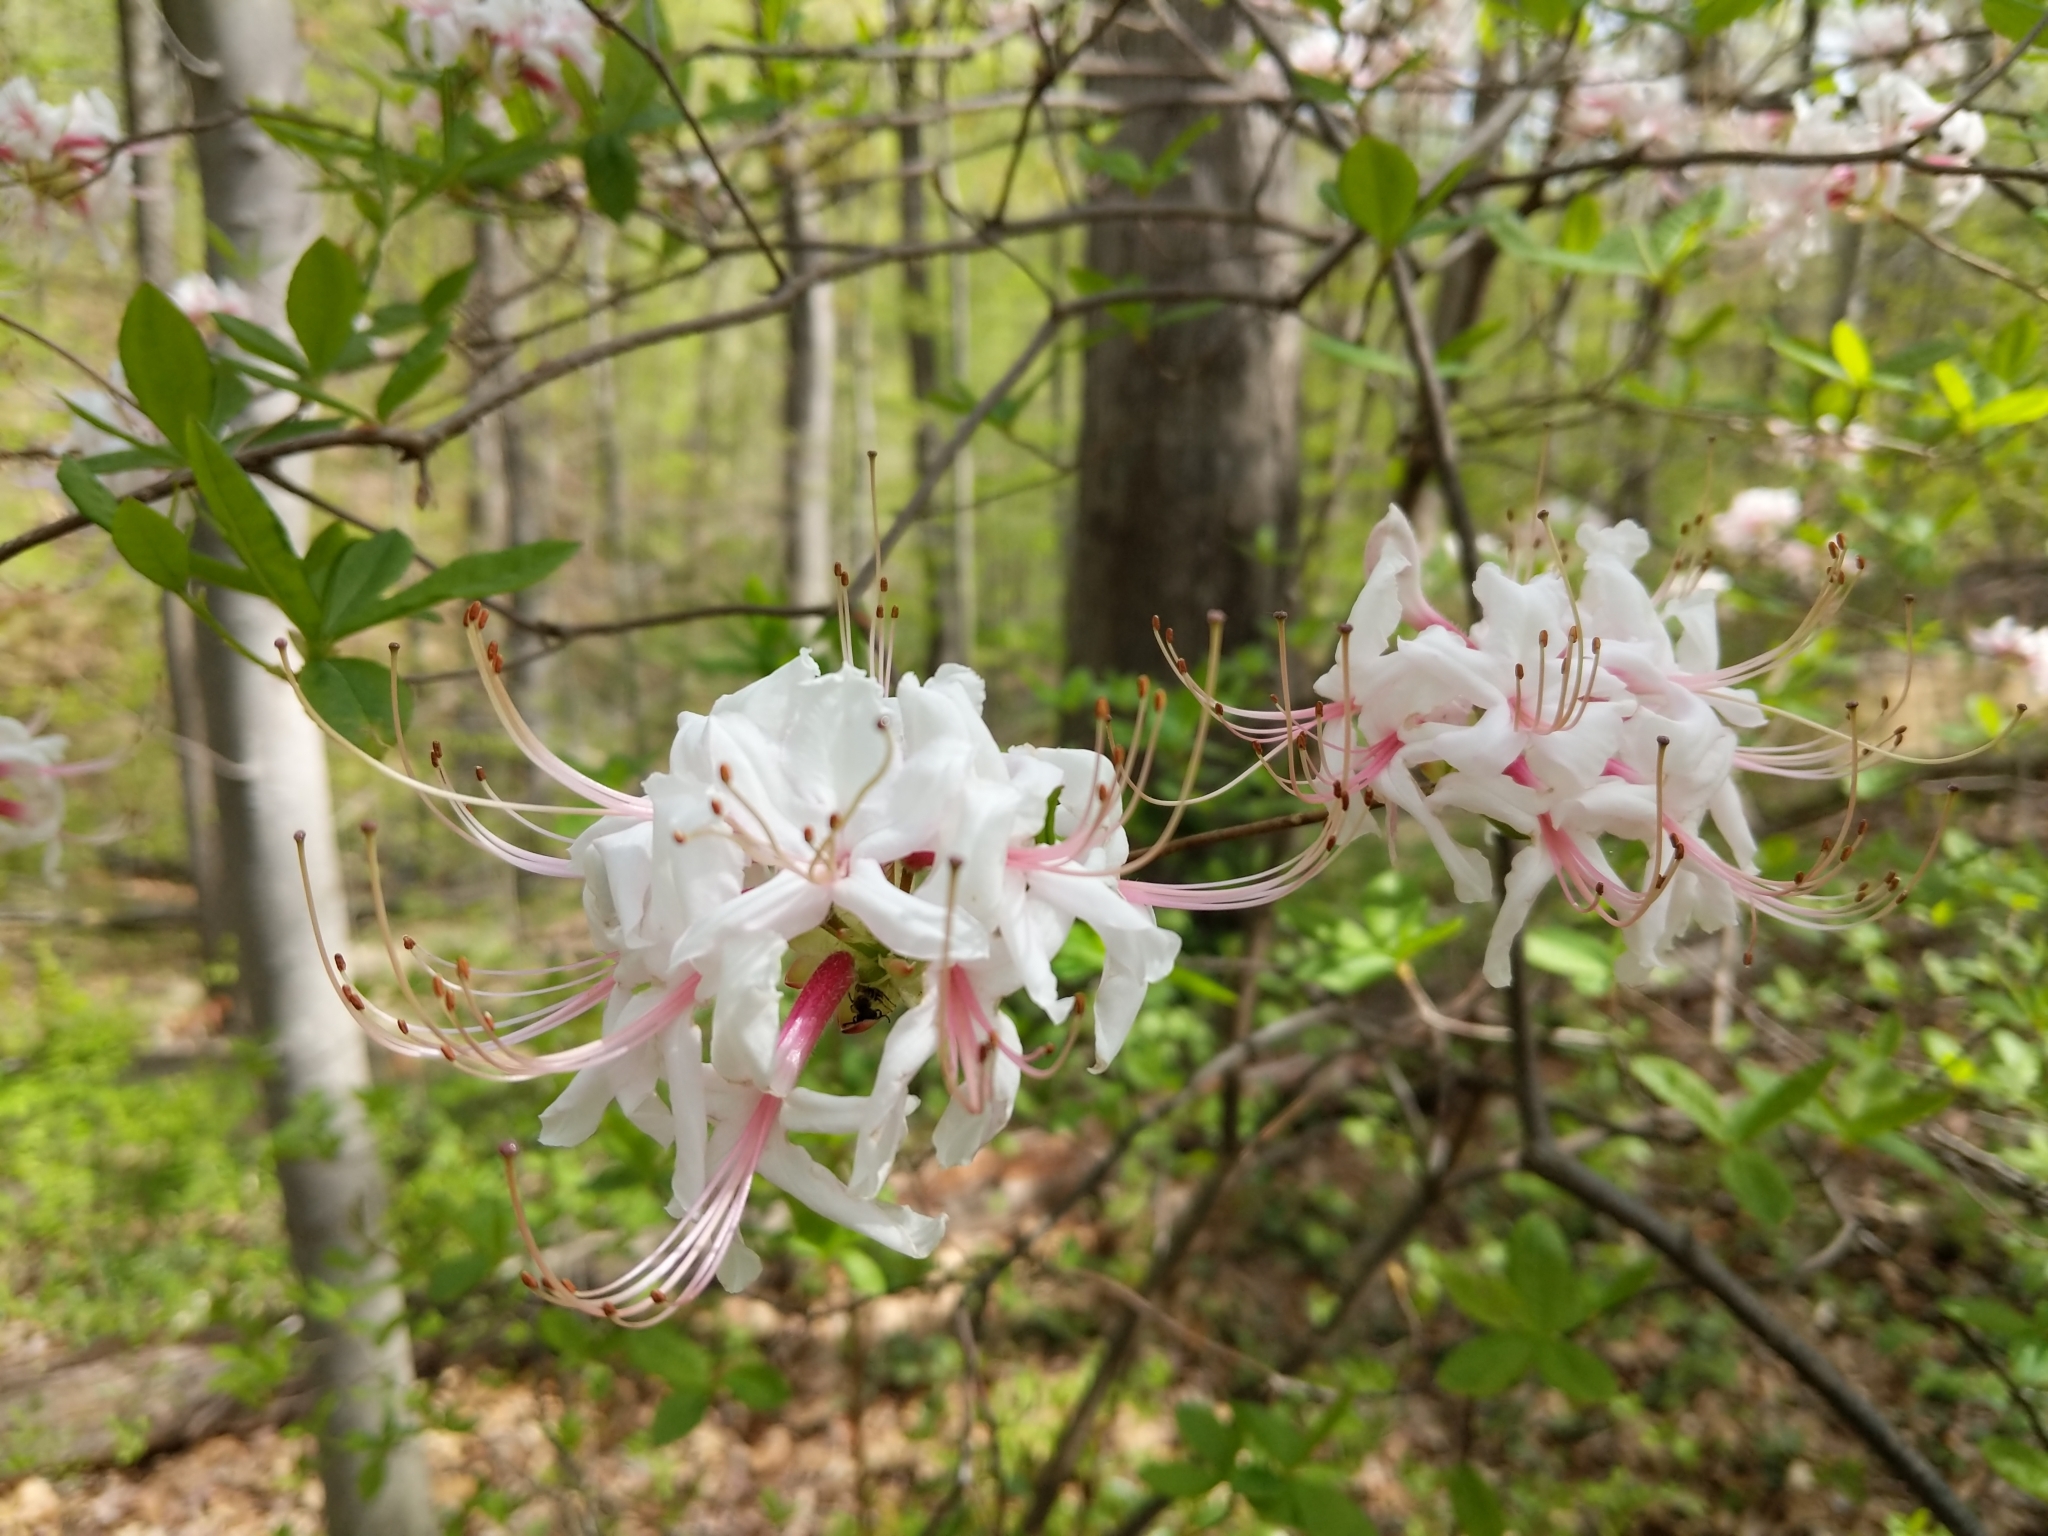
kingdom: Plantae
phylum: Tracheophyta
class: Magnoliopsida
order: Ericales
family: Ericaceae
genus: Rhododendron
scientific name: Rhododendron periclymenoides
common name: Election-pink
